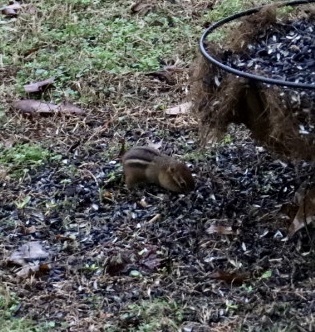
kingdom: Animalia
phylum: Chordata
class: Mammalia
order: Rodentia
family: Sciuridae
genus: Tamias
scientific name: Tamias striatus
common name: Eastern chipmunk
